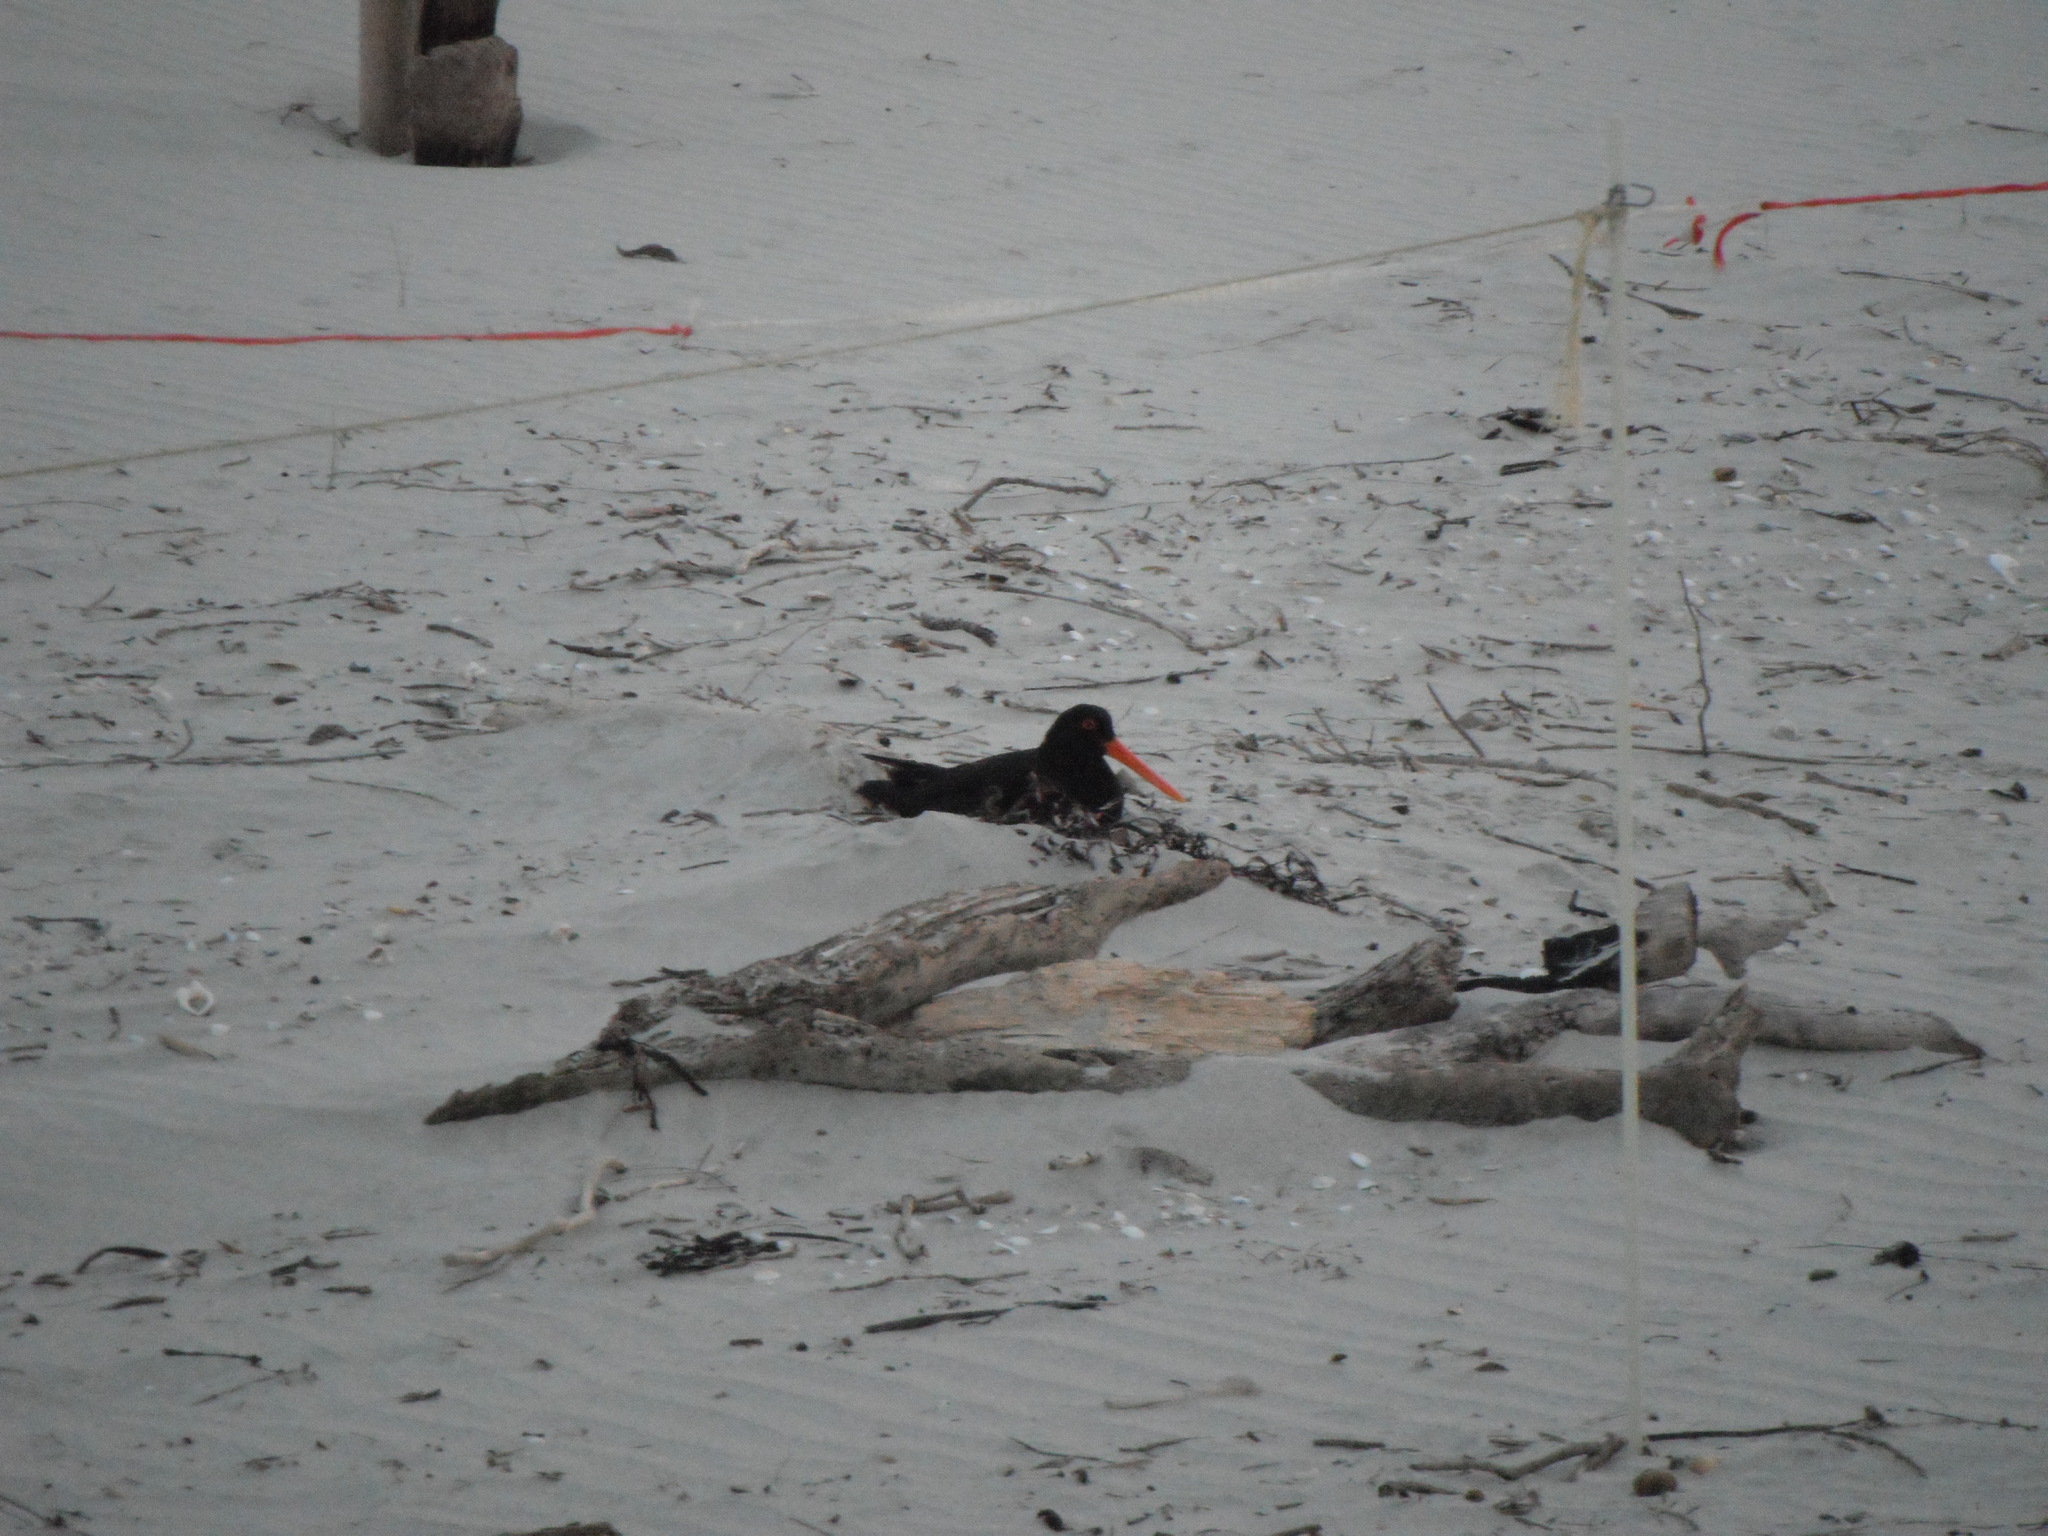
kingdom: Animalia
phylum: Chordata
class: Aves
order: Charadriiformes
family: Haematopodidae
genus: Haematopus
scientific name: Haematopus unicolor
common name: Variable oystercatcher
